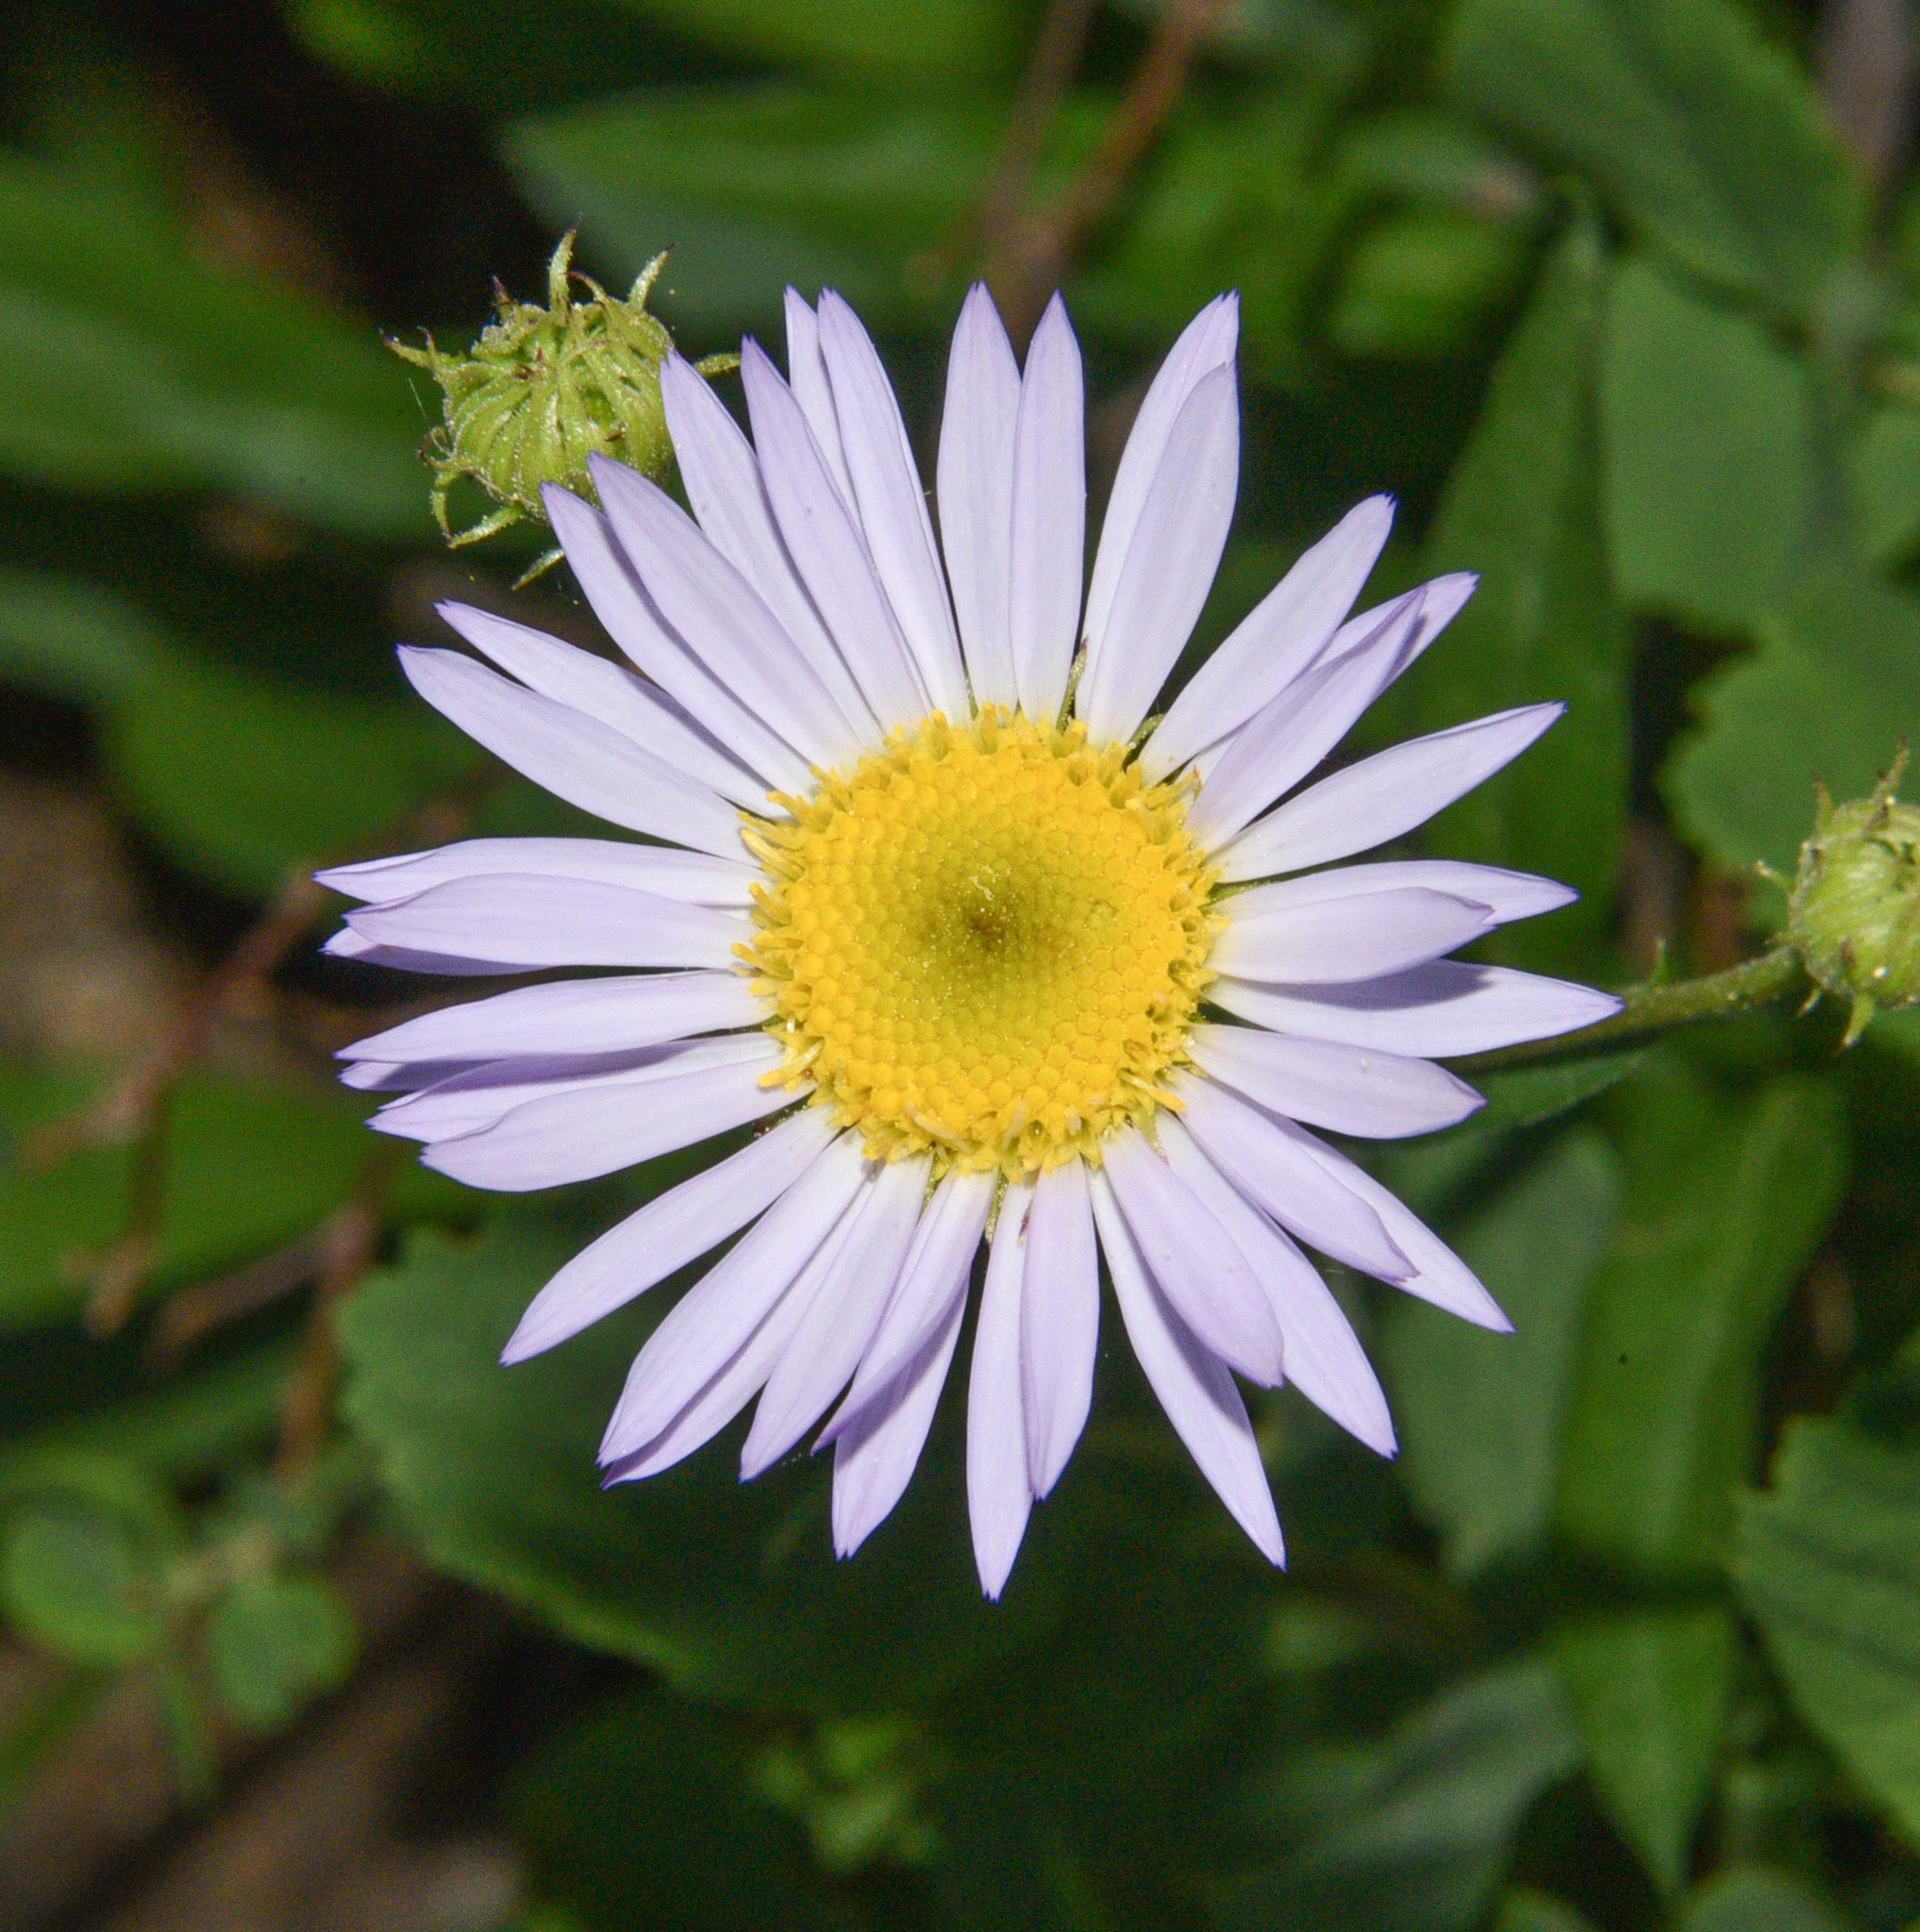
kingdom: Plantae
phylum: Tracheophyta
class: Magnoliopsida
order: Asterales
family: Asteraceae
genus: Erigeron
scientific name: Erigeron glacialis
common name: Subalpine fleabane
